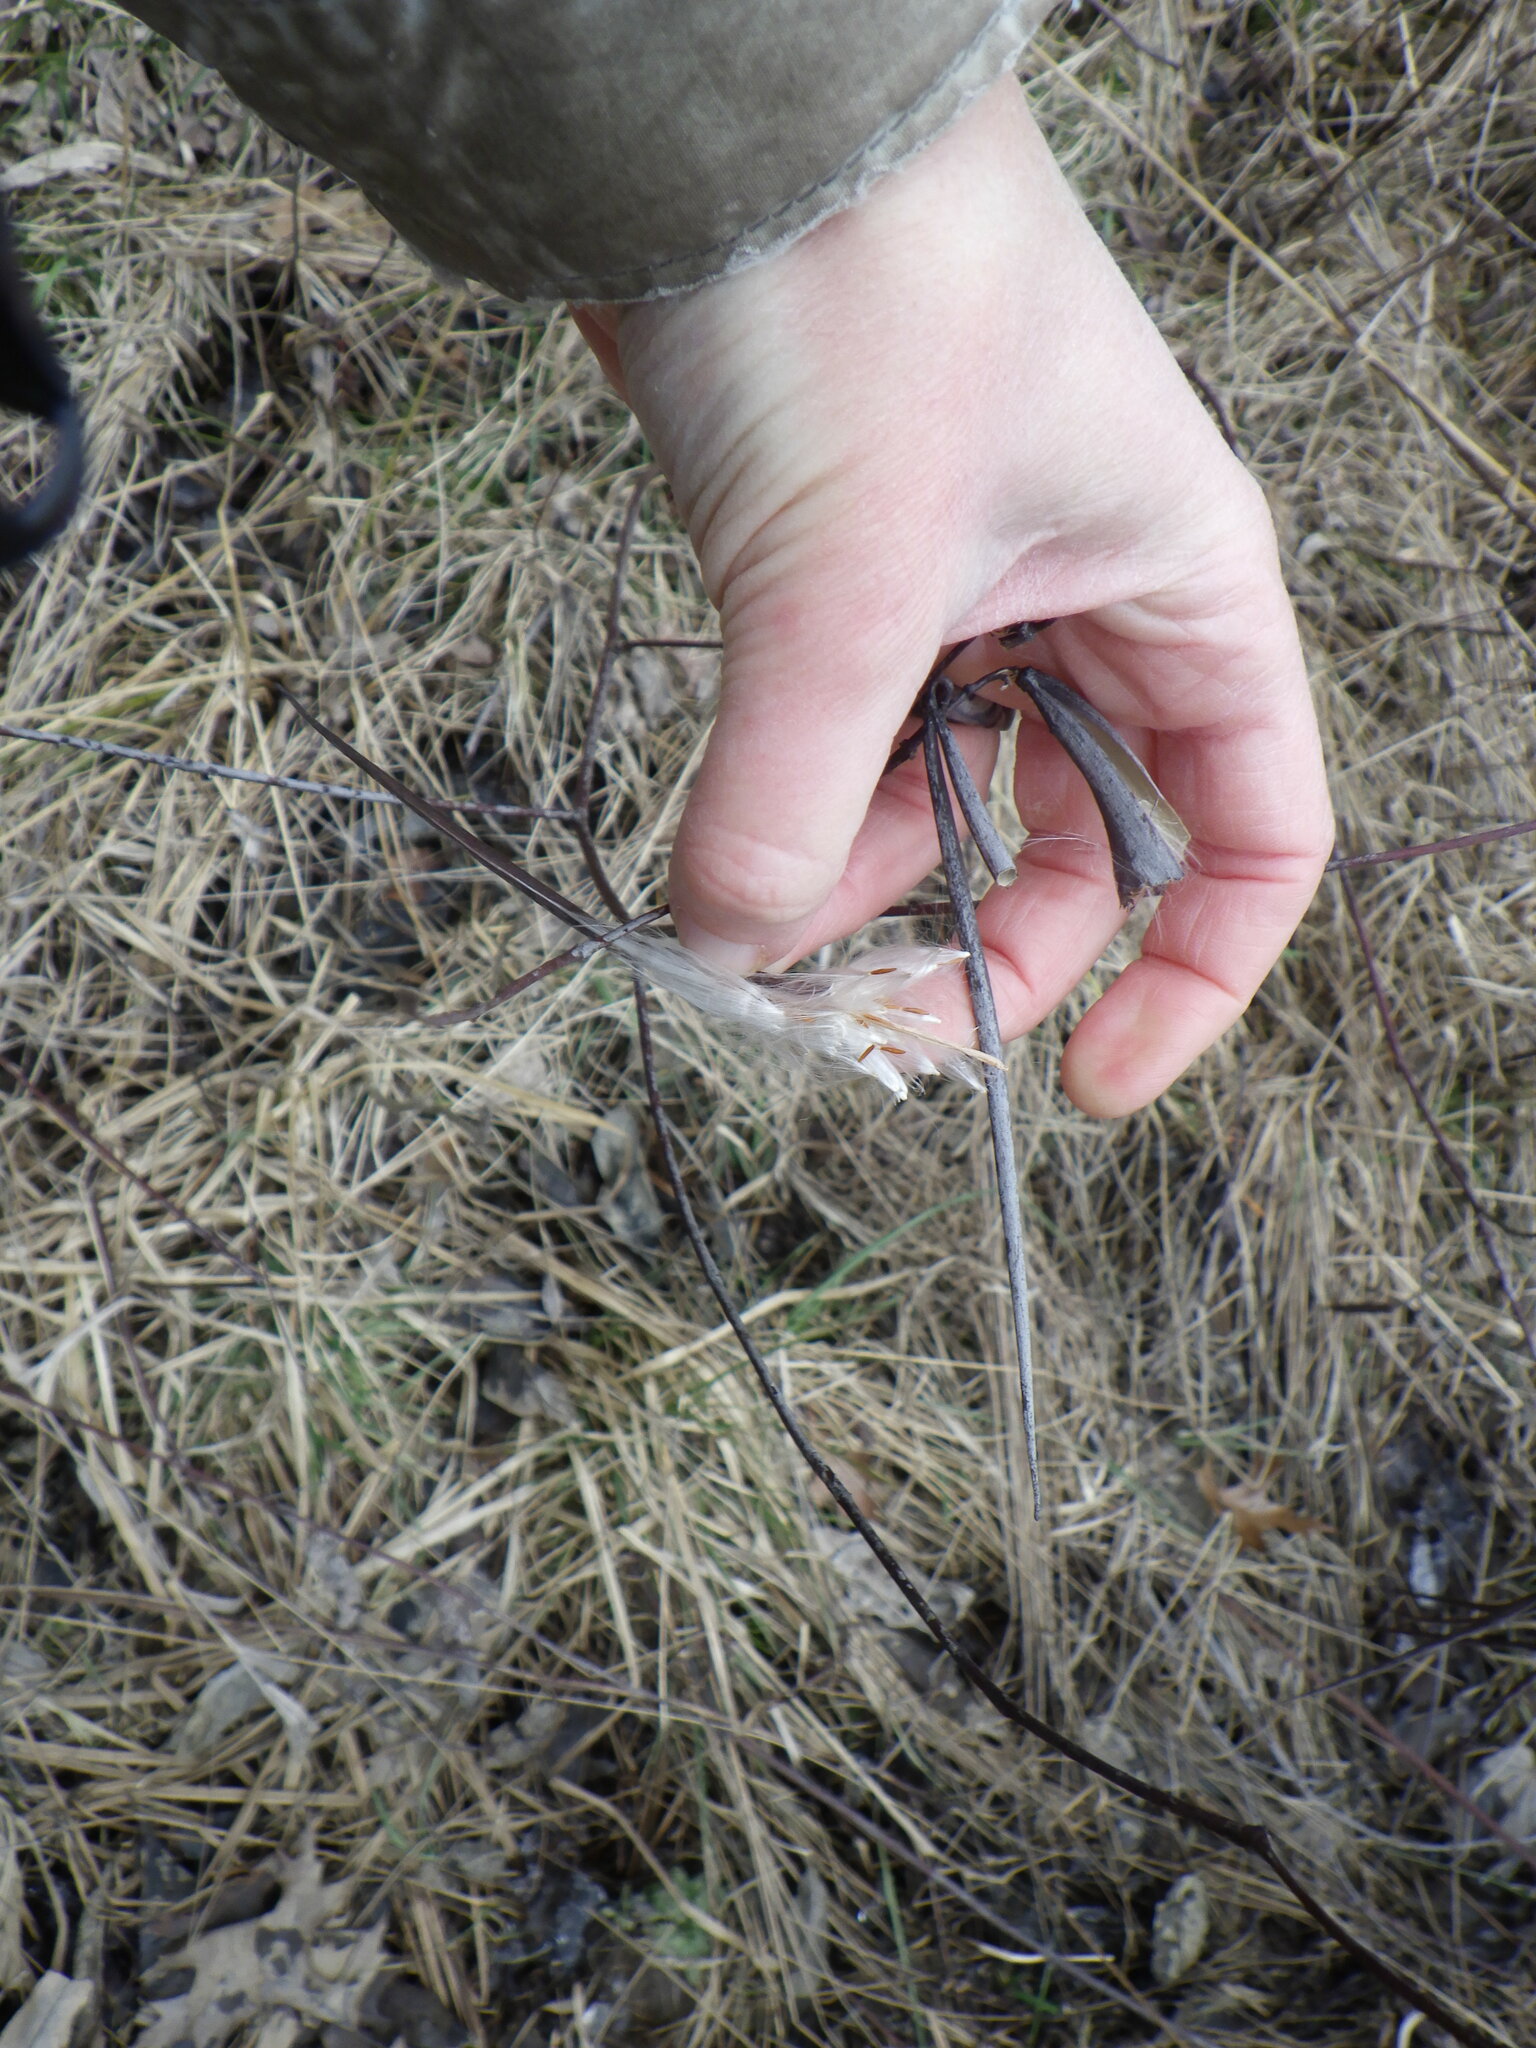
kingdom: Plantae
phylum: Tracheophyta
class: Magnoliopsida
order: Gentianales
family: Apocynaceae
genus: Apocynum
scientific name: Apocynum cannabinum
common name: Hemp dogbane
